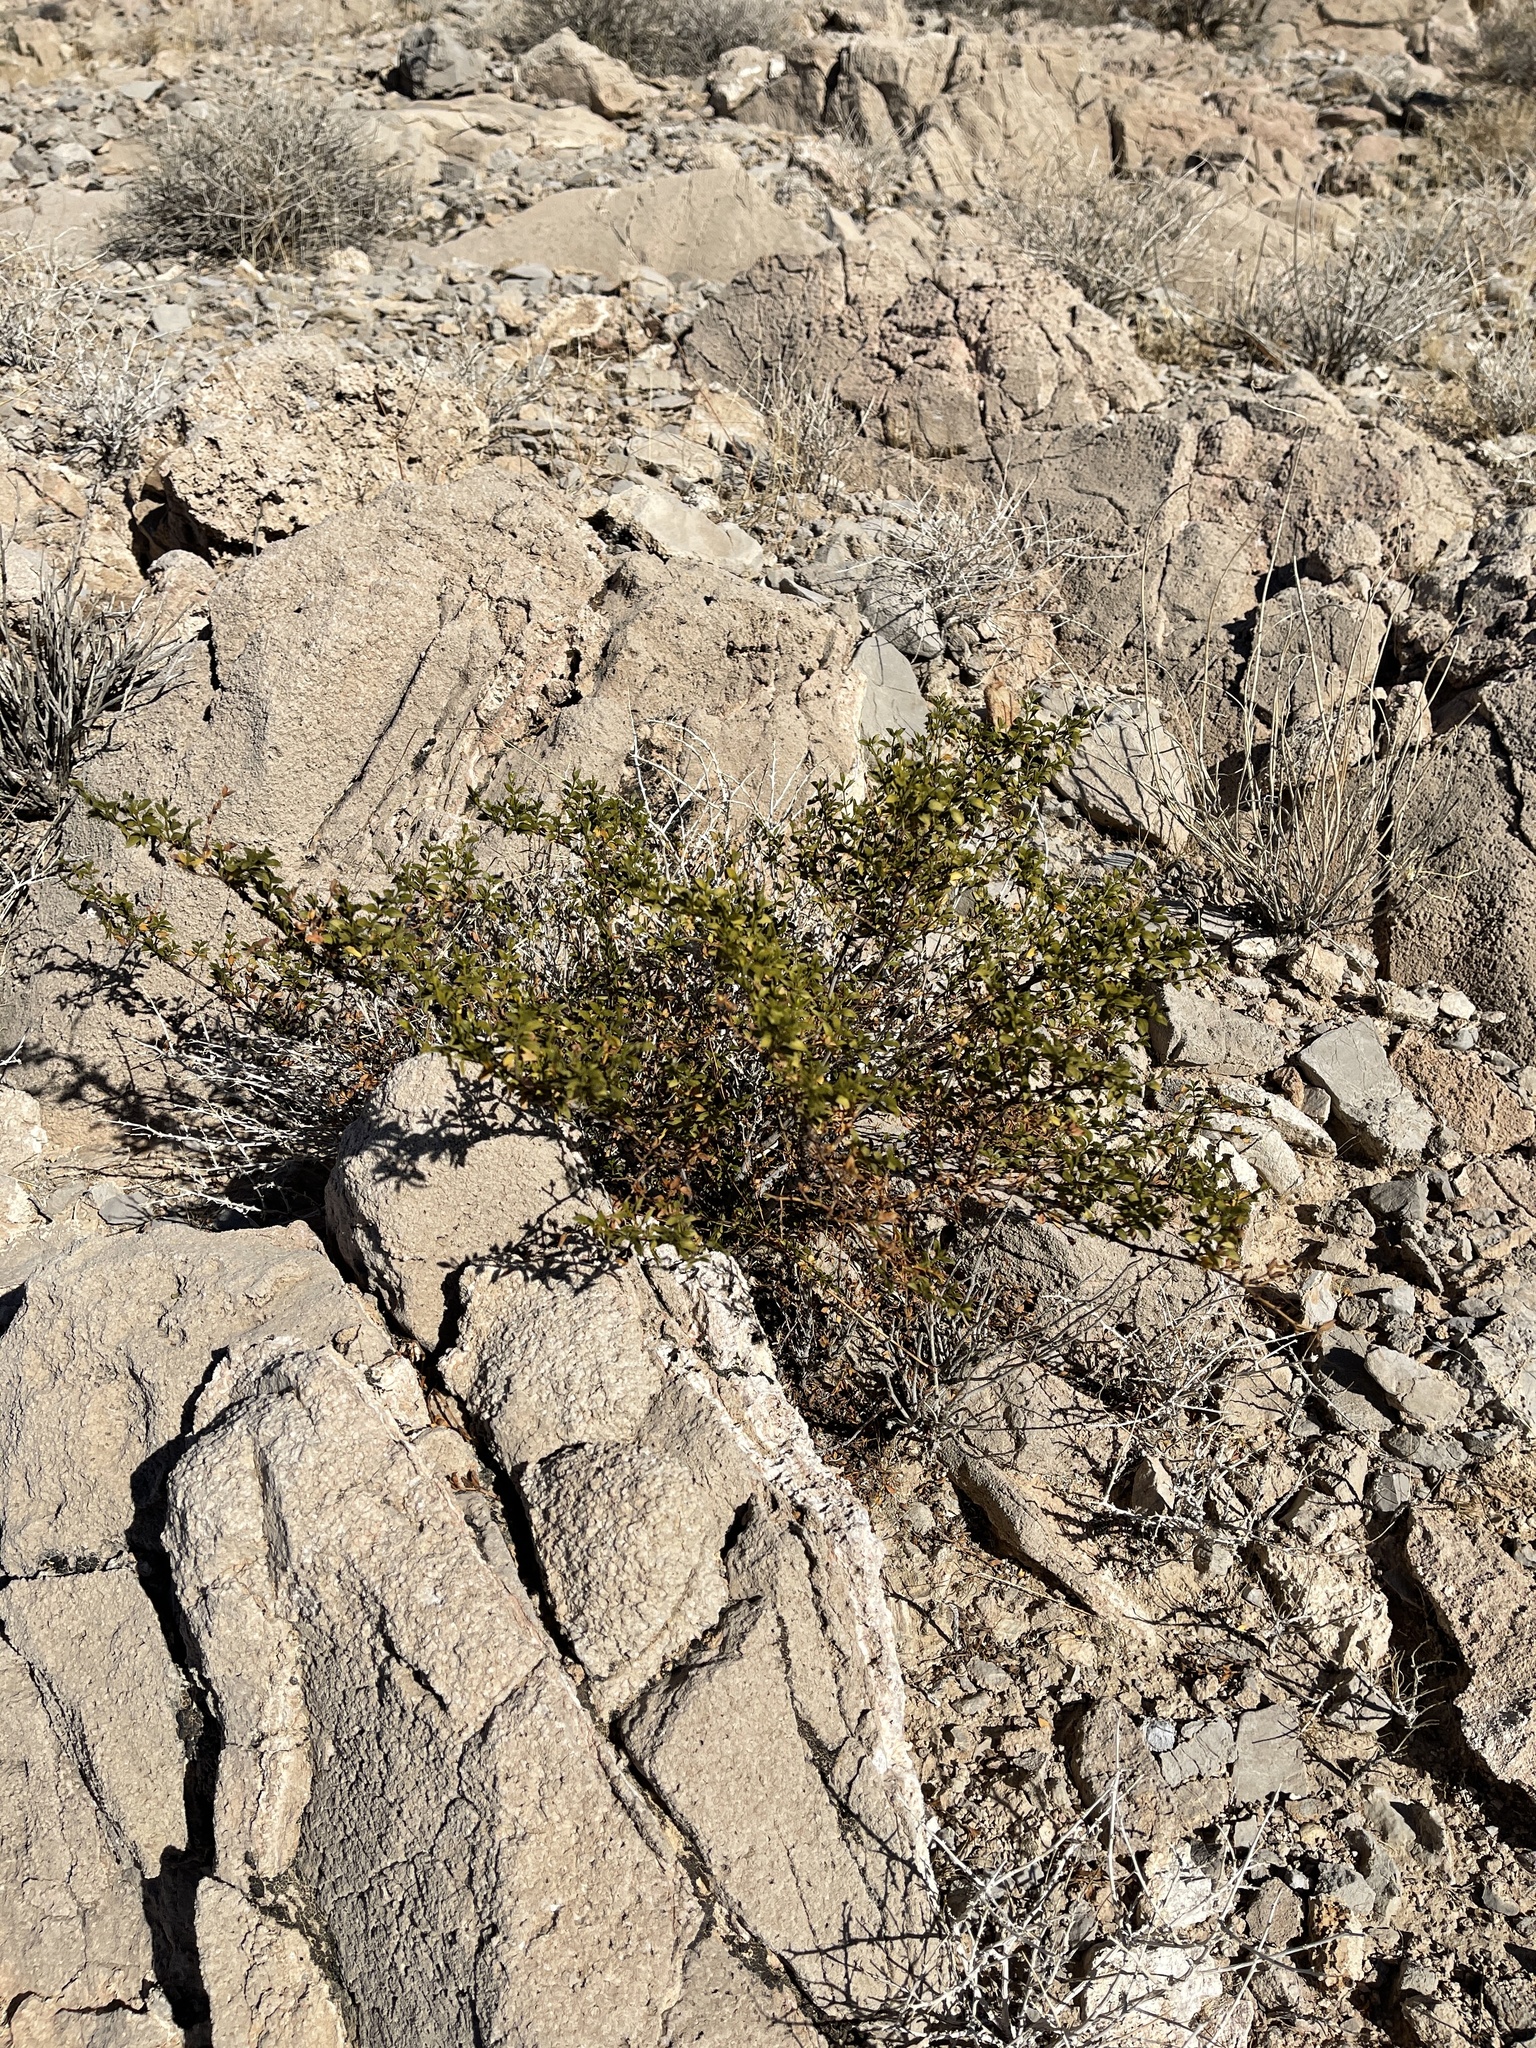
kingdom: Plantae
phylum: Tracheophyta
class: Magnoliopsida
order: Zygophyllales
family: Zygophyllaceae
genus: Larrea
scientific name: Larrea tridentata
